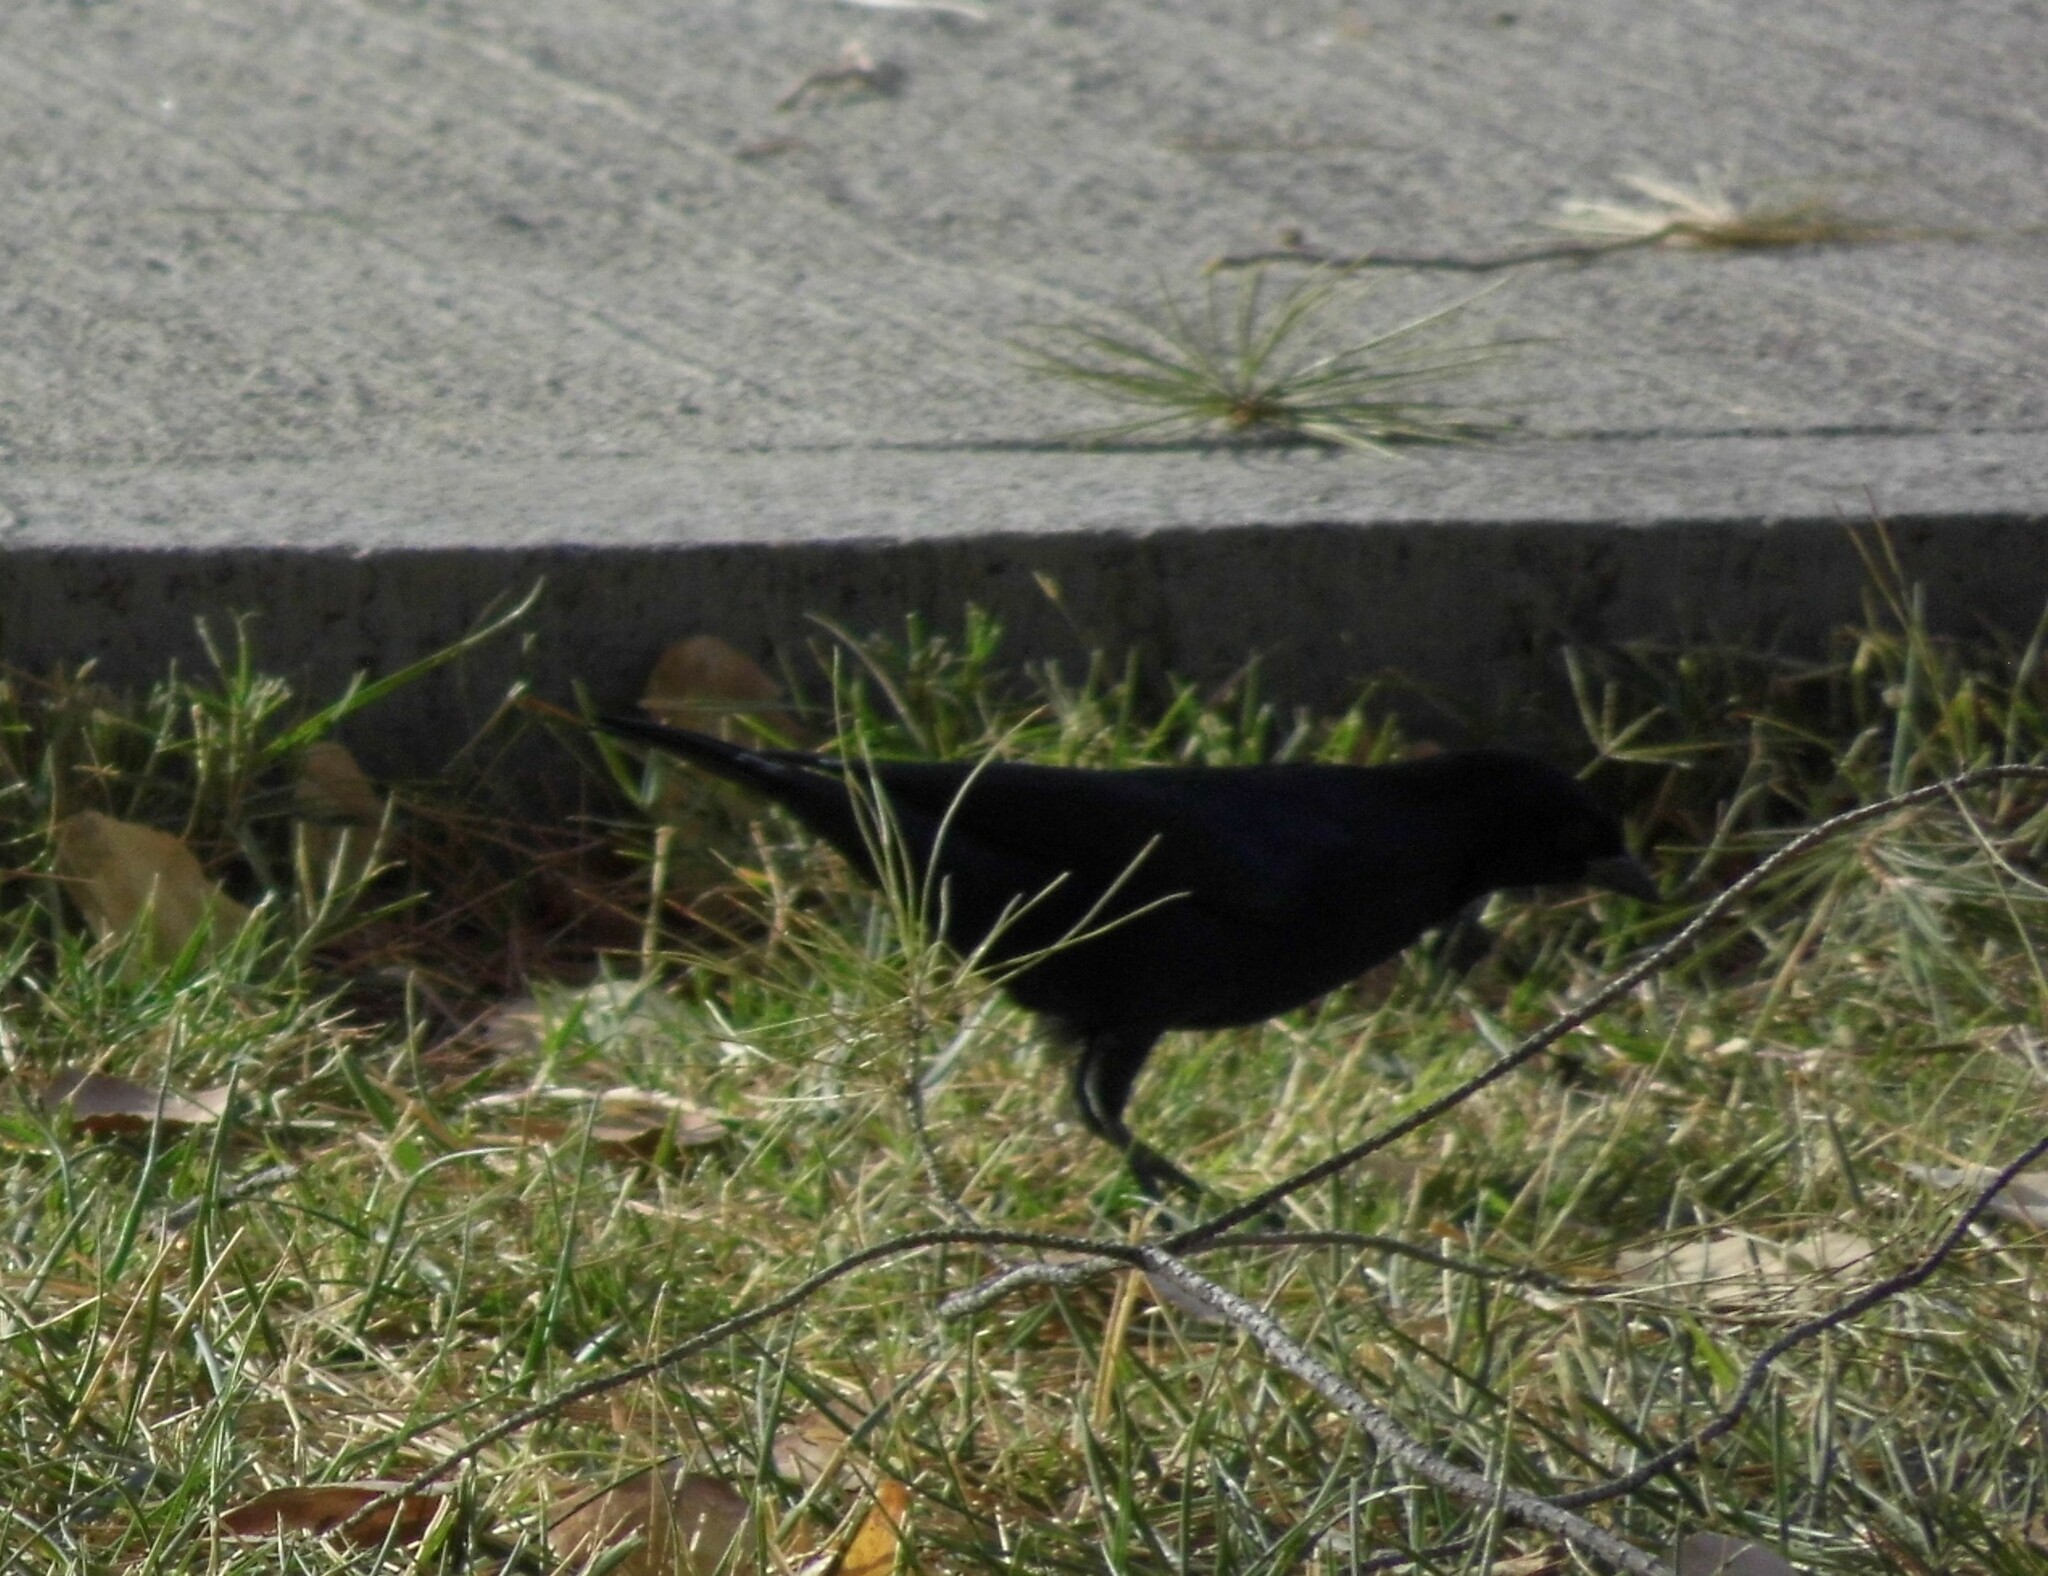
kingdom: Animalia
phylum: Chordata
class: Aves
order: Passeriformes
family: Icteridae
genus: Molothrus
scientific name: Molothrus bonariensis
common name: Shiny cowbird
